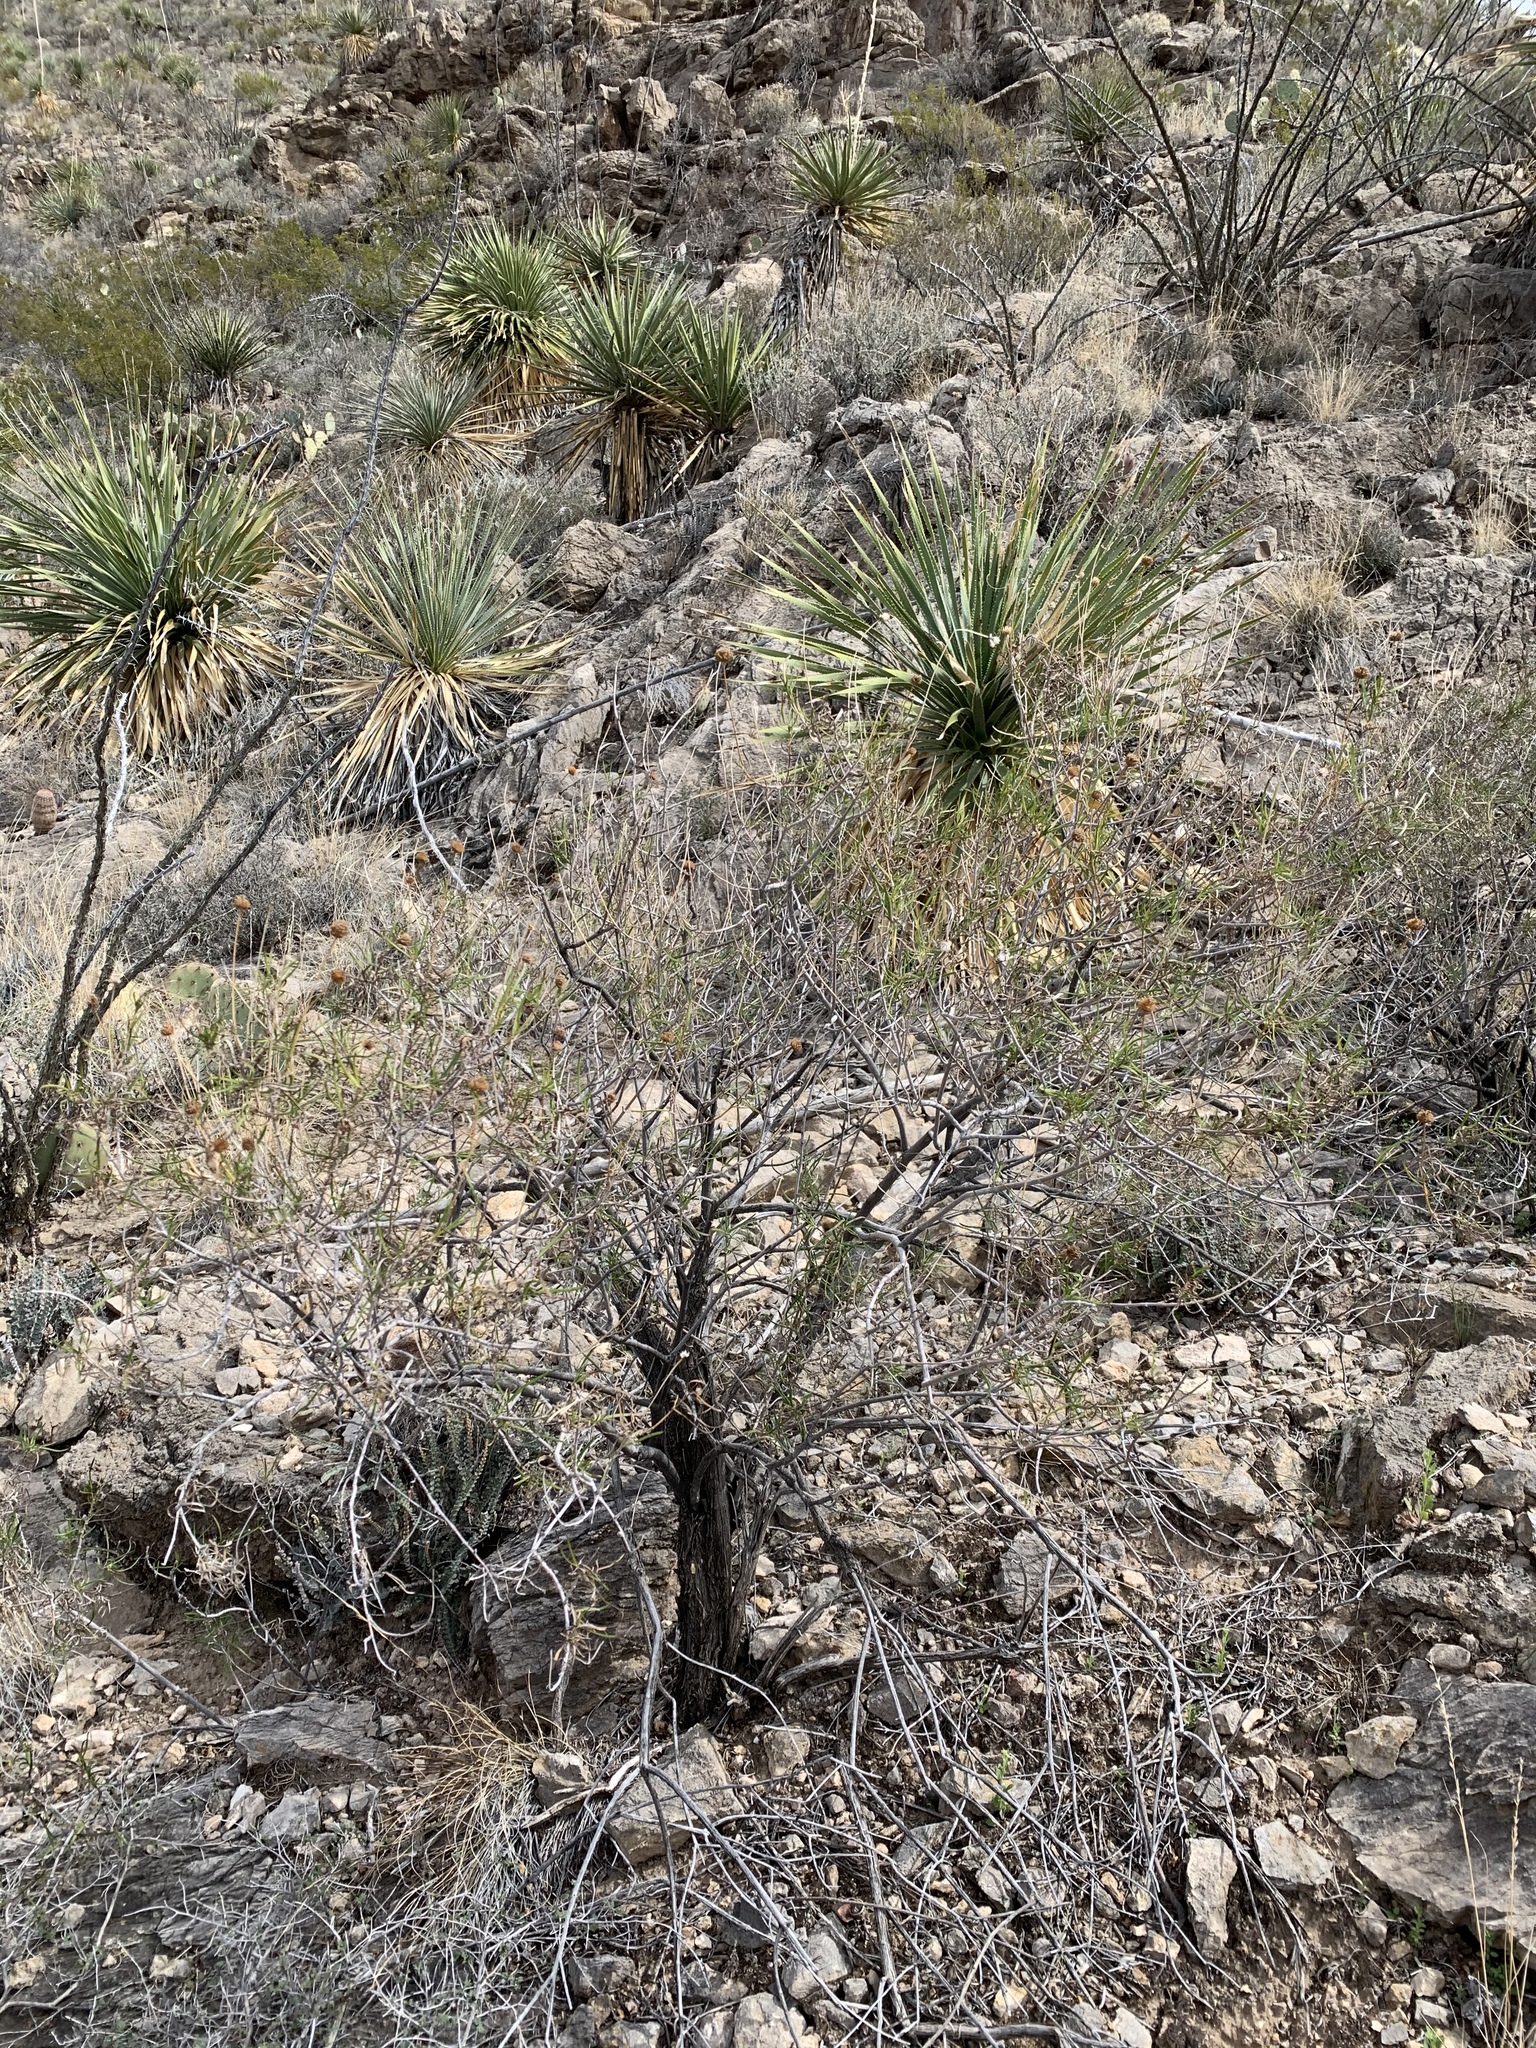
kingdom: Plantae
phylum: Tracheophyta
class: Magnoliopsida
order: Asterales
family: Asteraceae
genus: Sidneya
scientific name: Sidneya tenuifolia
